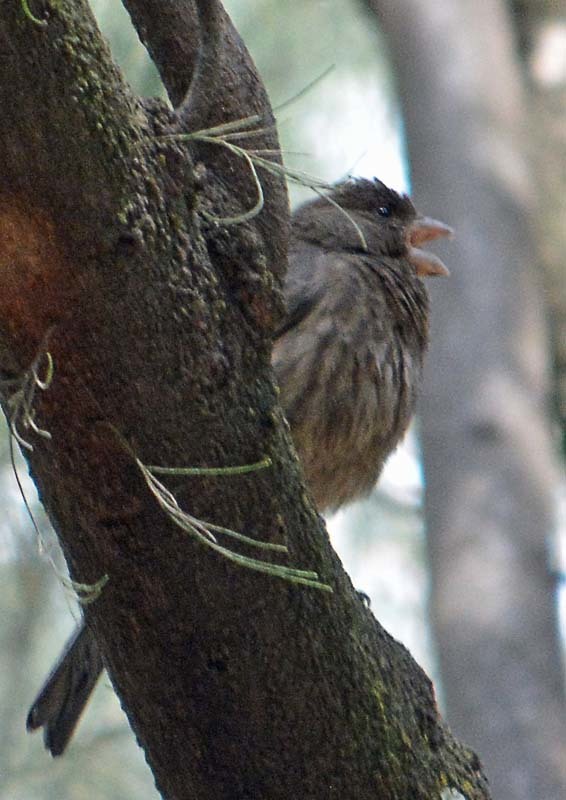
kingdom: Animalia
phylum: Chordata
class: Aves
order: Passeriformes
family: Fringillidae
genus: Haemorhous
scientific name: Haemorhous mexicanus
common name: House finch
